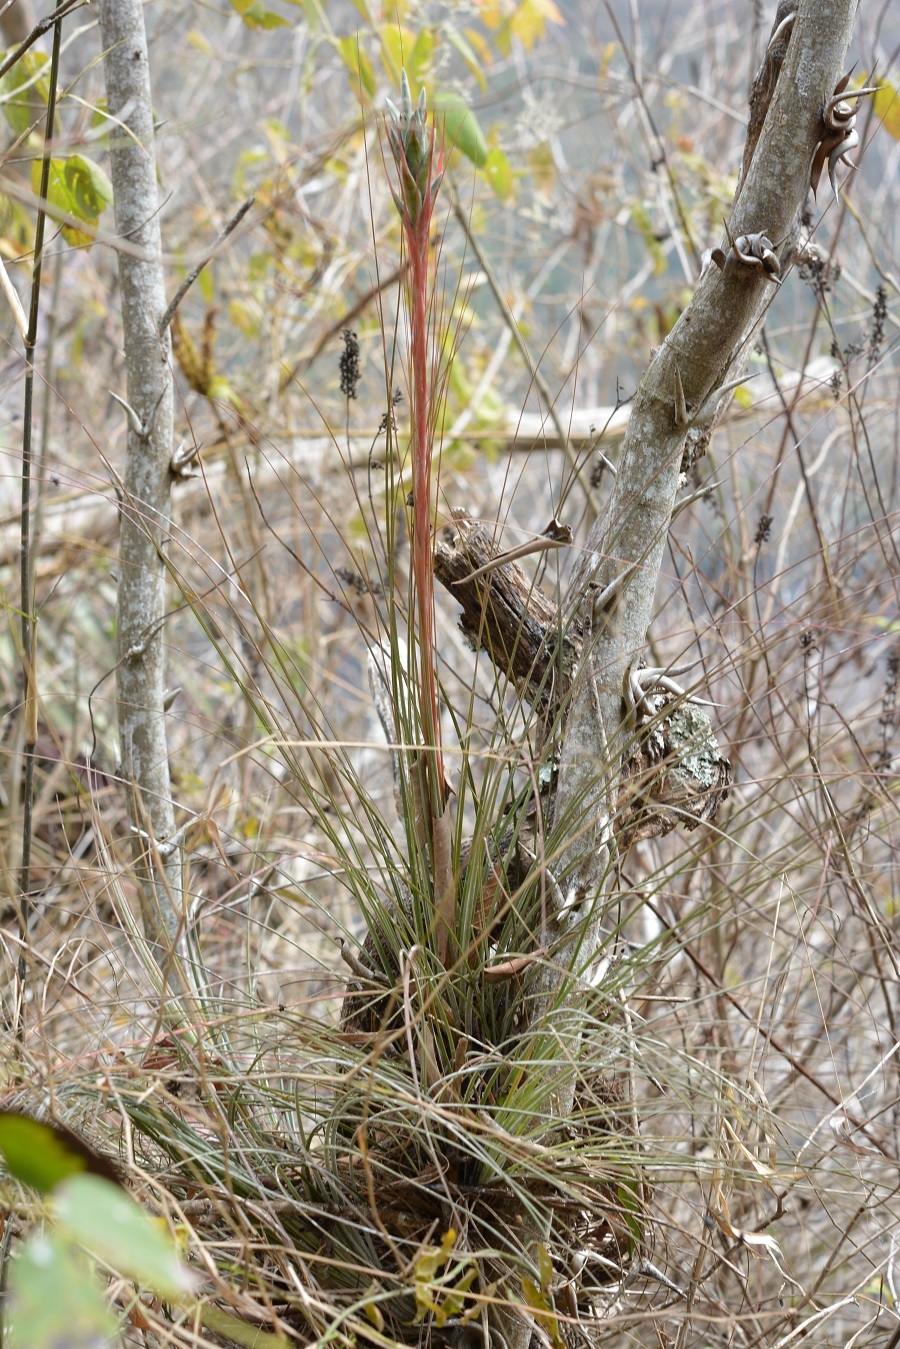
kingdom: Plantae
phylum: Tracheophyta
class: Liliopsida
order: Poales
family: Bromeliaceae
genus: Tillandsia
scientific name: Tillandsia juncea
